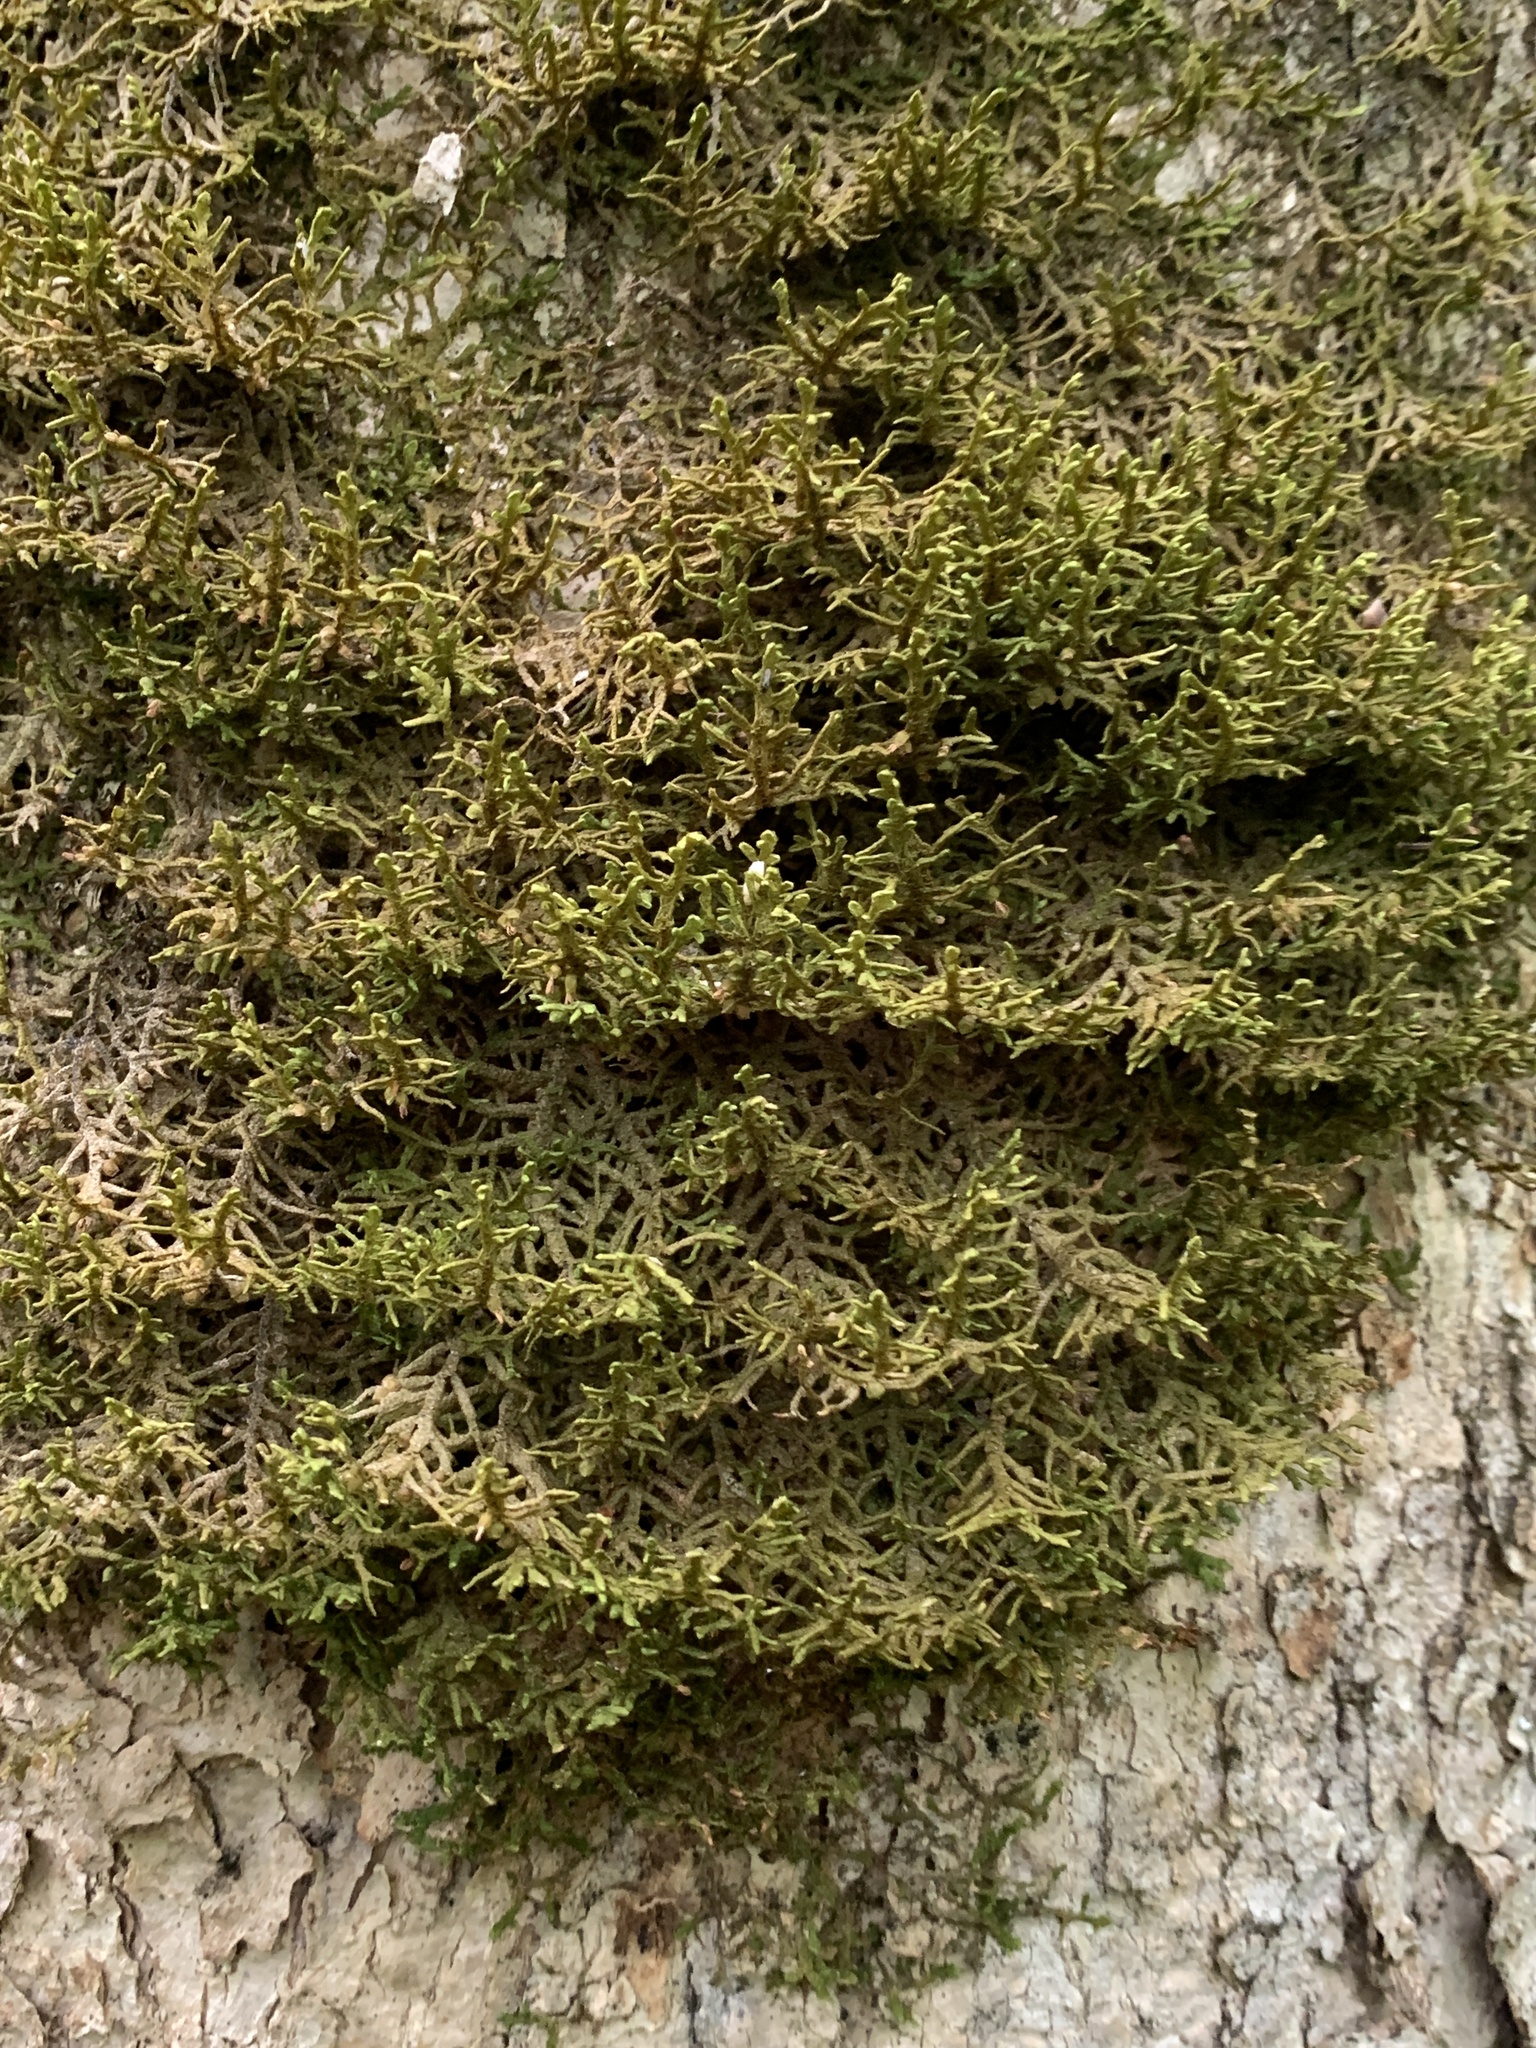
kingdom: Plantae
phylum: Marchantiophyta
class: Jungermanniopsida
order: Porellales
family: Porellaceae
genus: Porella
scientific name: Porella platyphylla
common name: Wall scalewort
